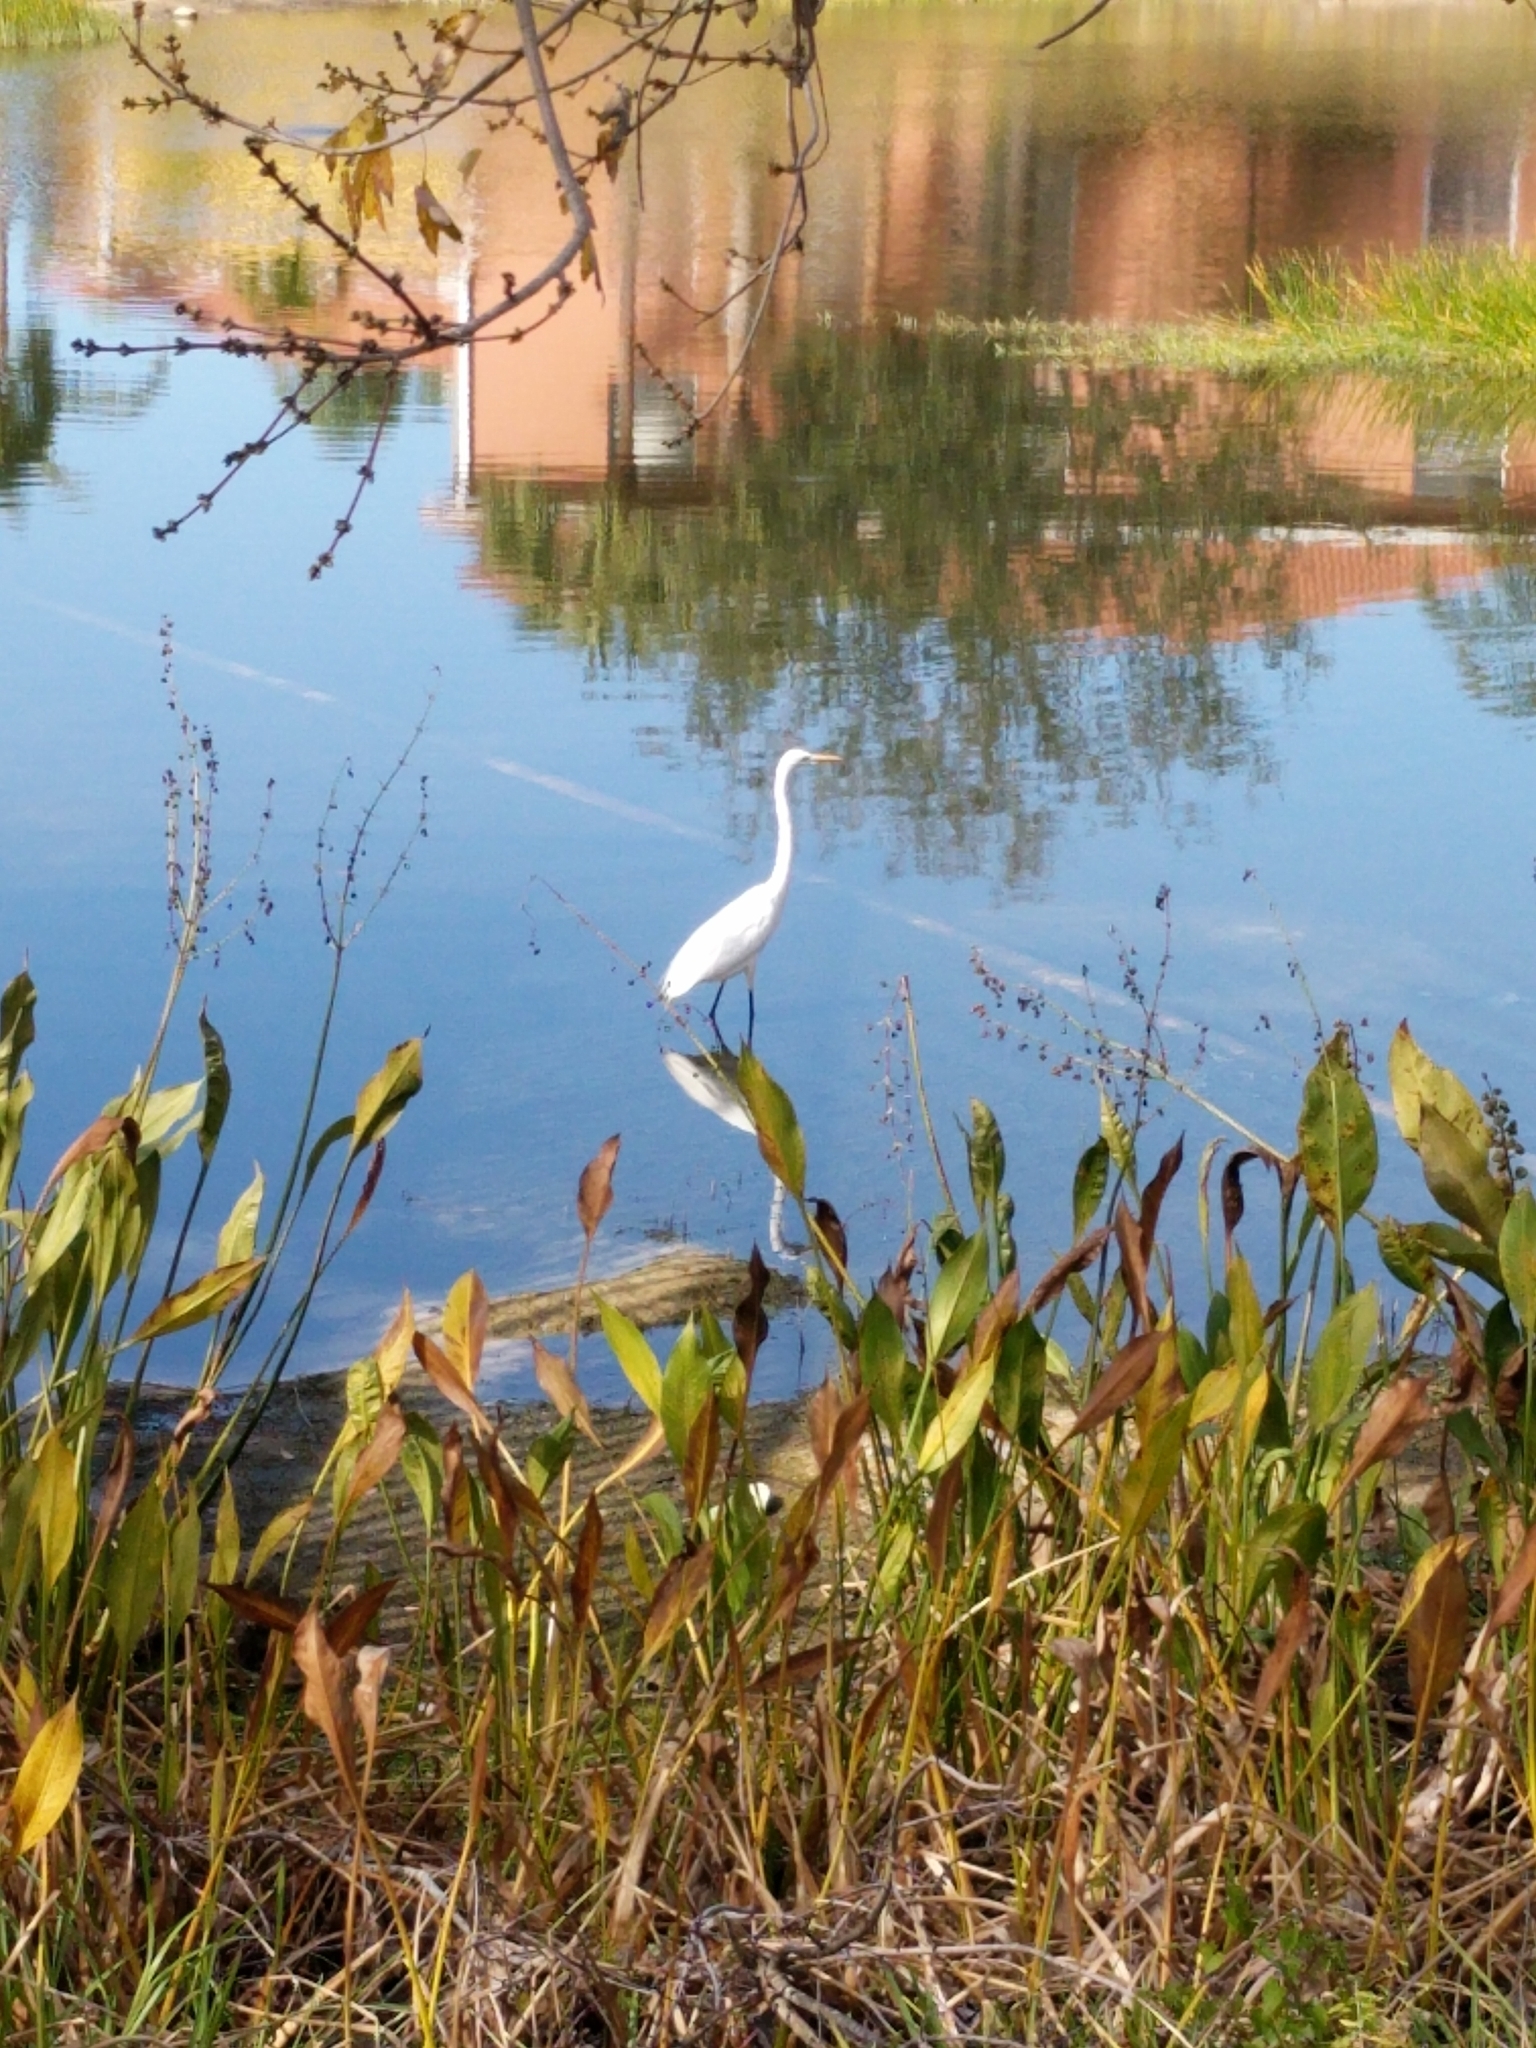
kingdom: Animalia
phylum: Chordata
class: Aves
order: Pelecaniformes
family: Ardeidae
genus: Ardea
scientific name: Ardea alba
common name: Great egret
